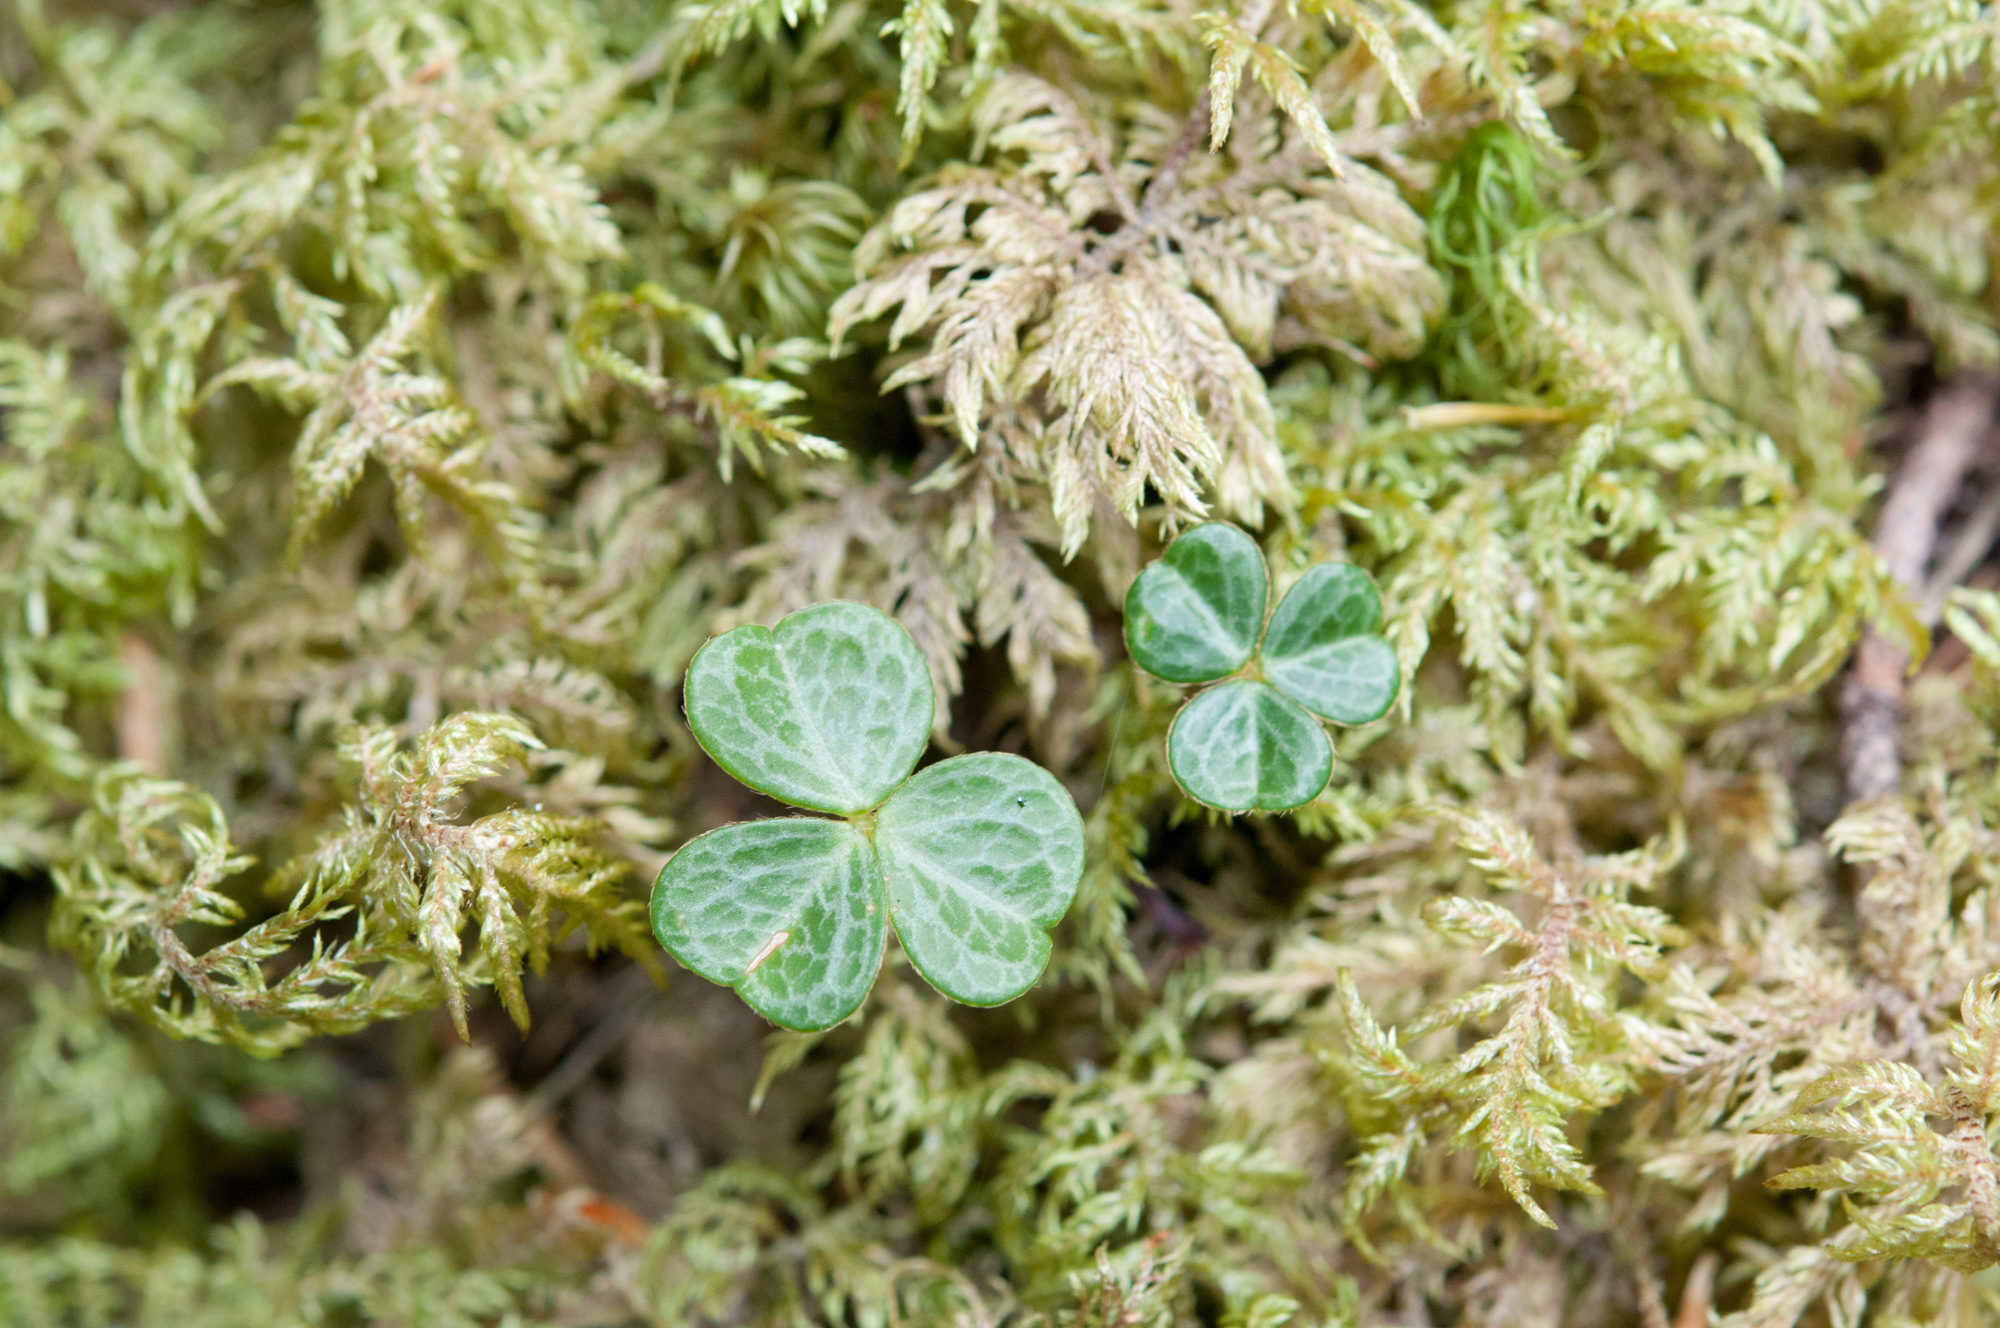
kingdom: Plantae
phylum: Tracheophyta
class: Magnoliopsida
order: Oxalidales
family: Oxalidaceae
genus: Oxalis
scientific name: Oxalis griffithii
